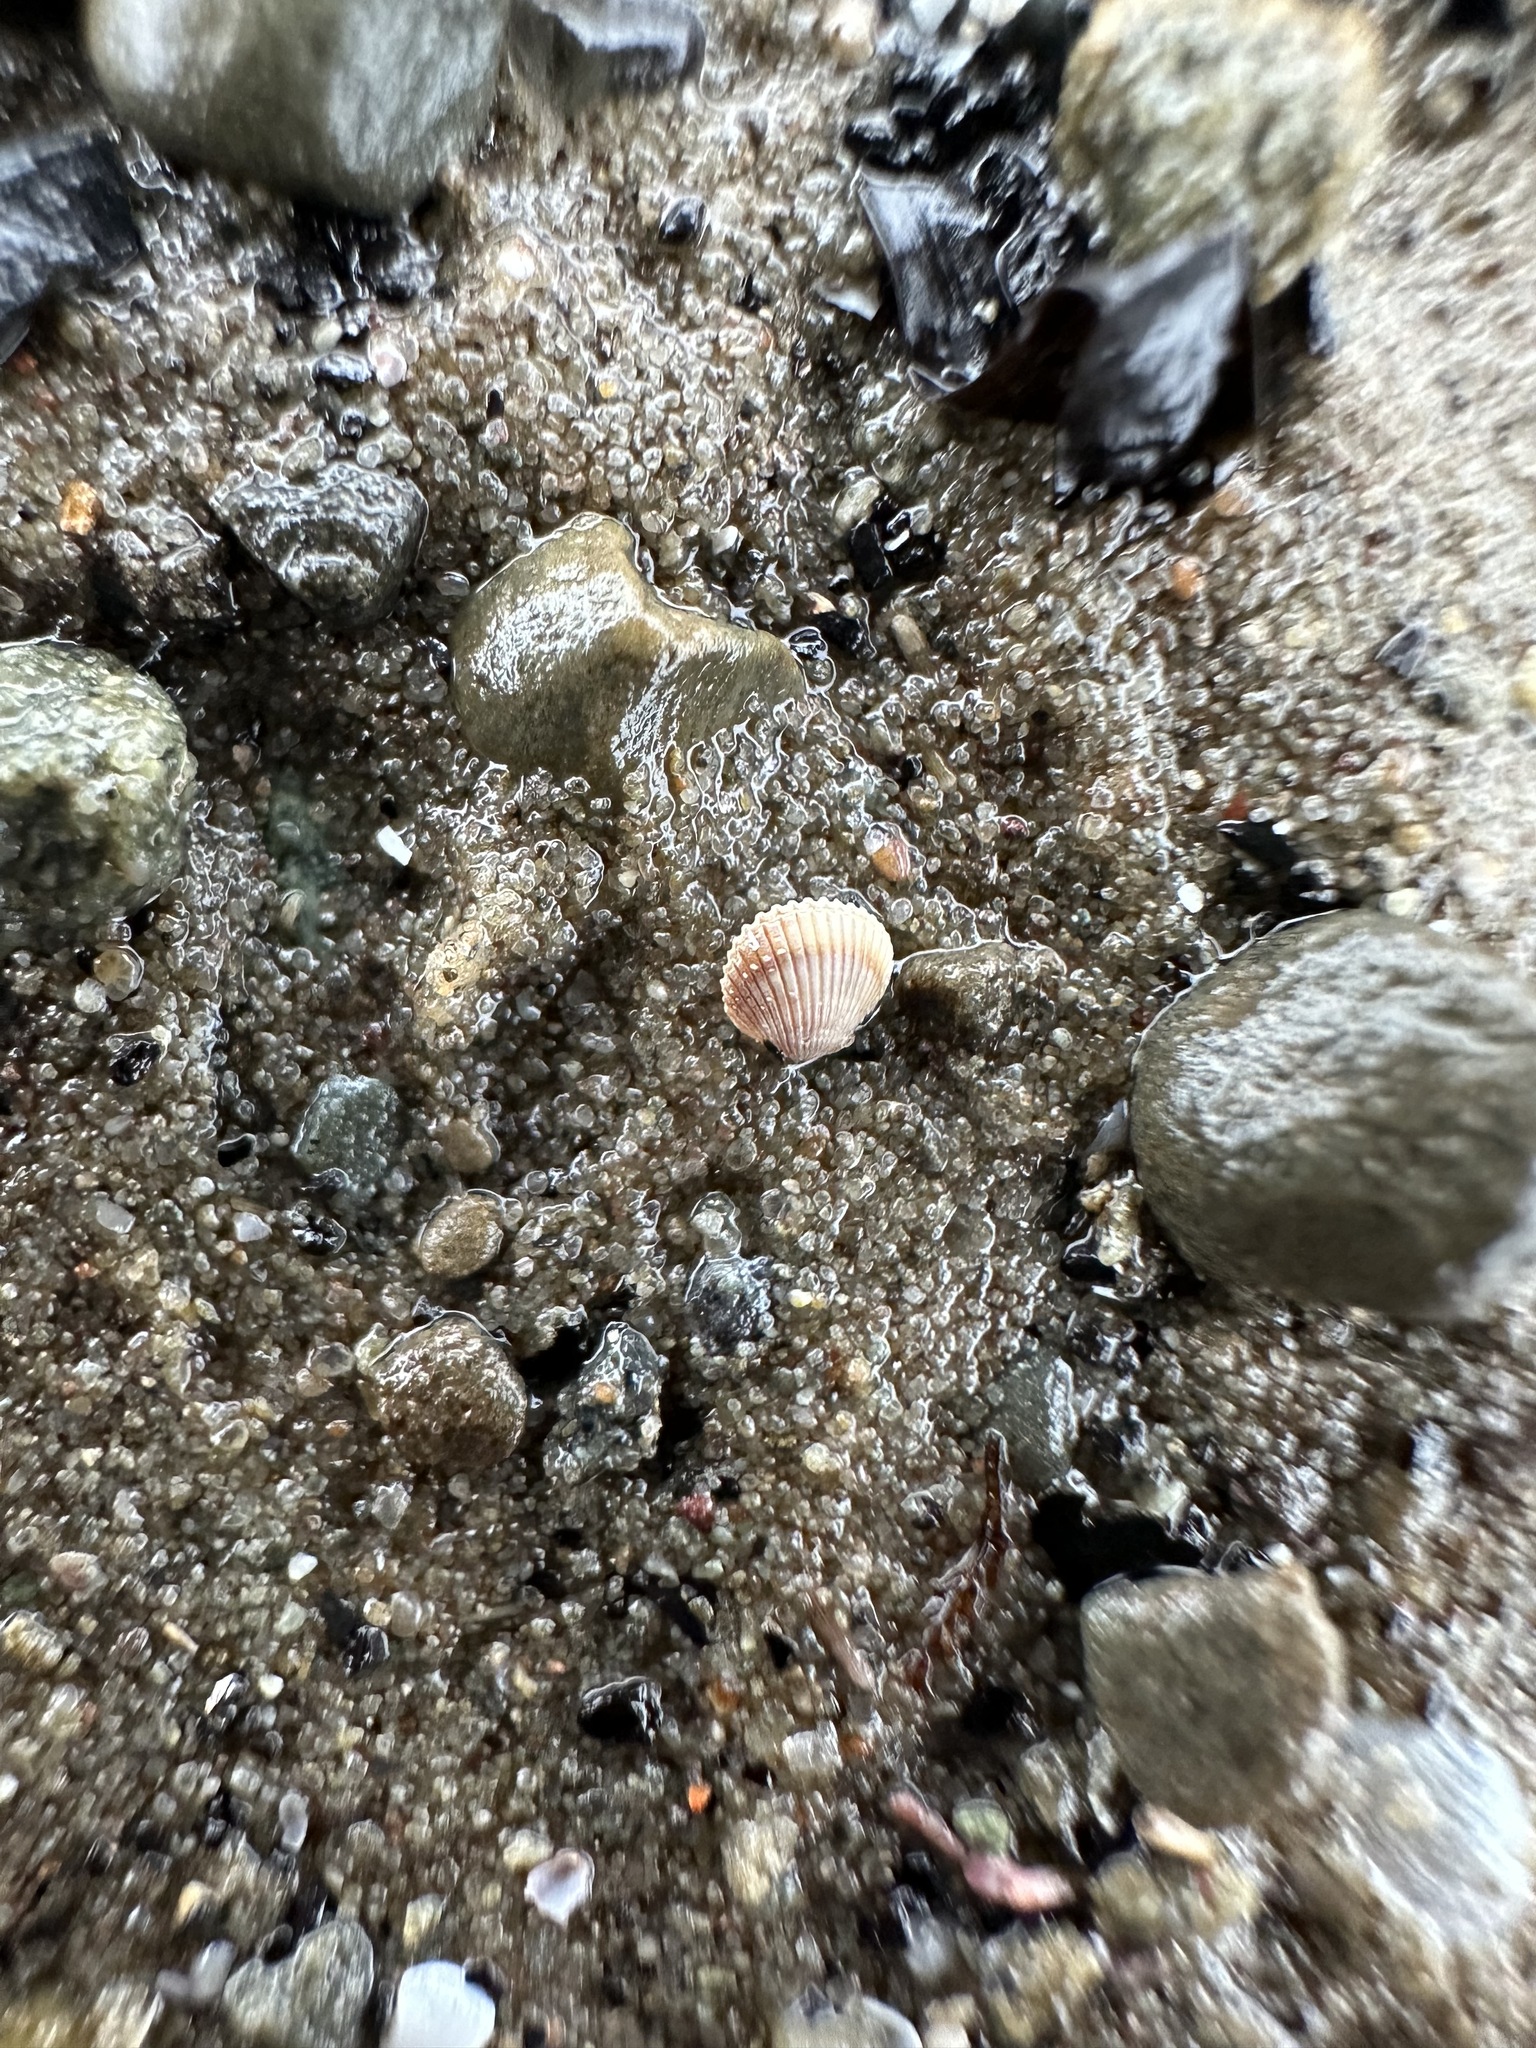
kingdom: Animalia
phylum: Mollusca
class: Bivalvia
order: Cardiida
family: Cardiidae
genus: Parvicardium
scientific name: Parvicardium pinnulatum
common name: Oval cockle
